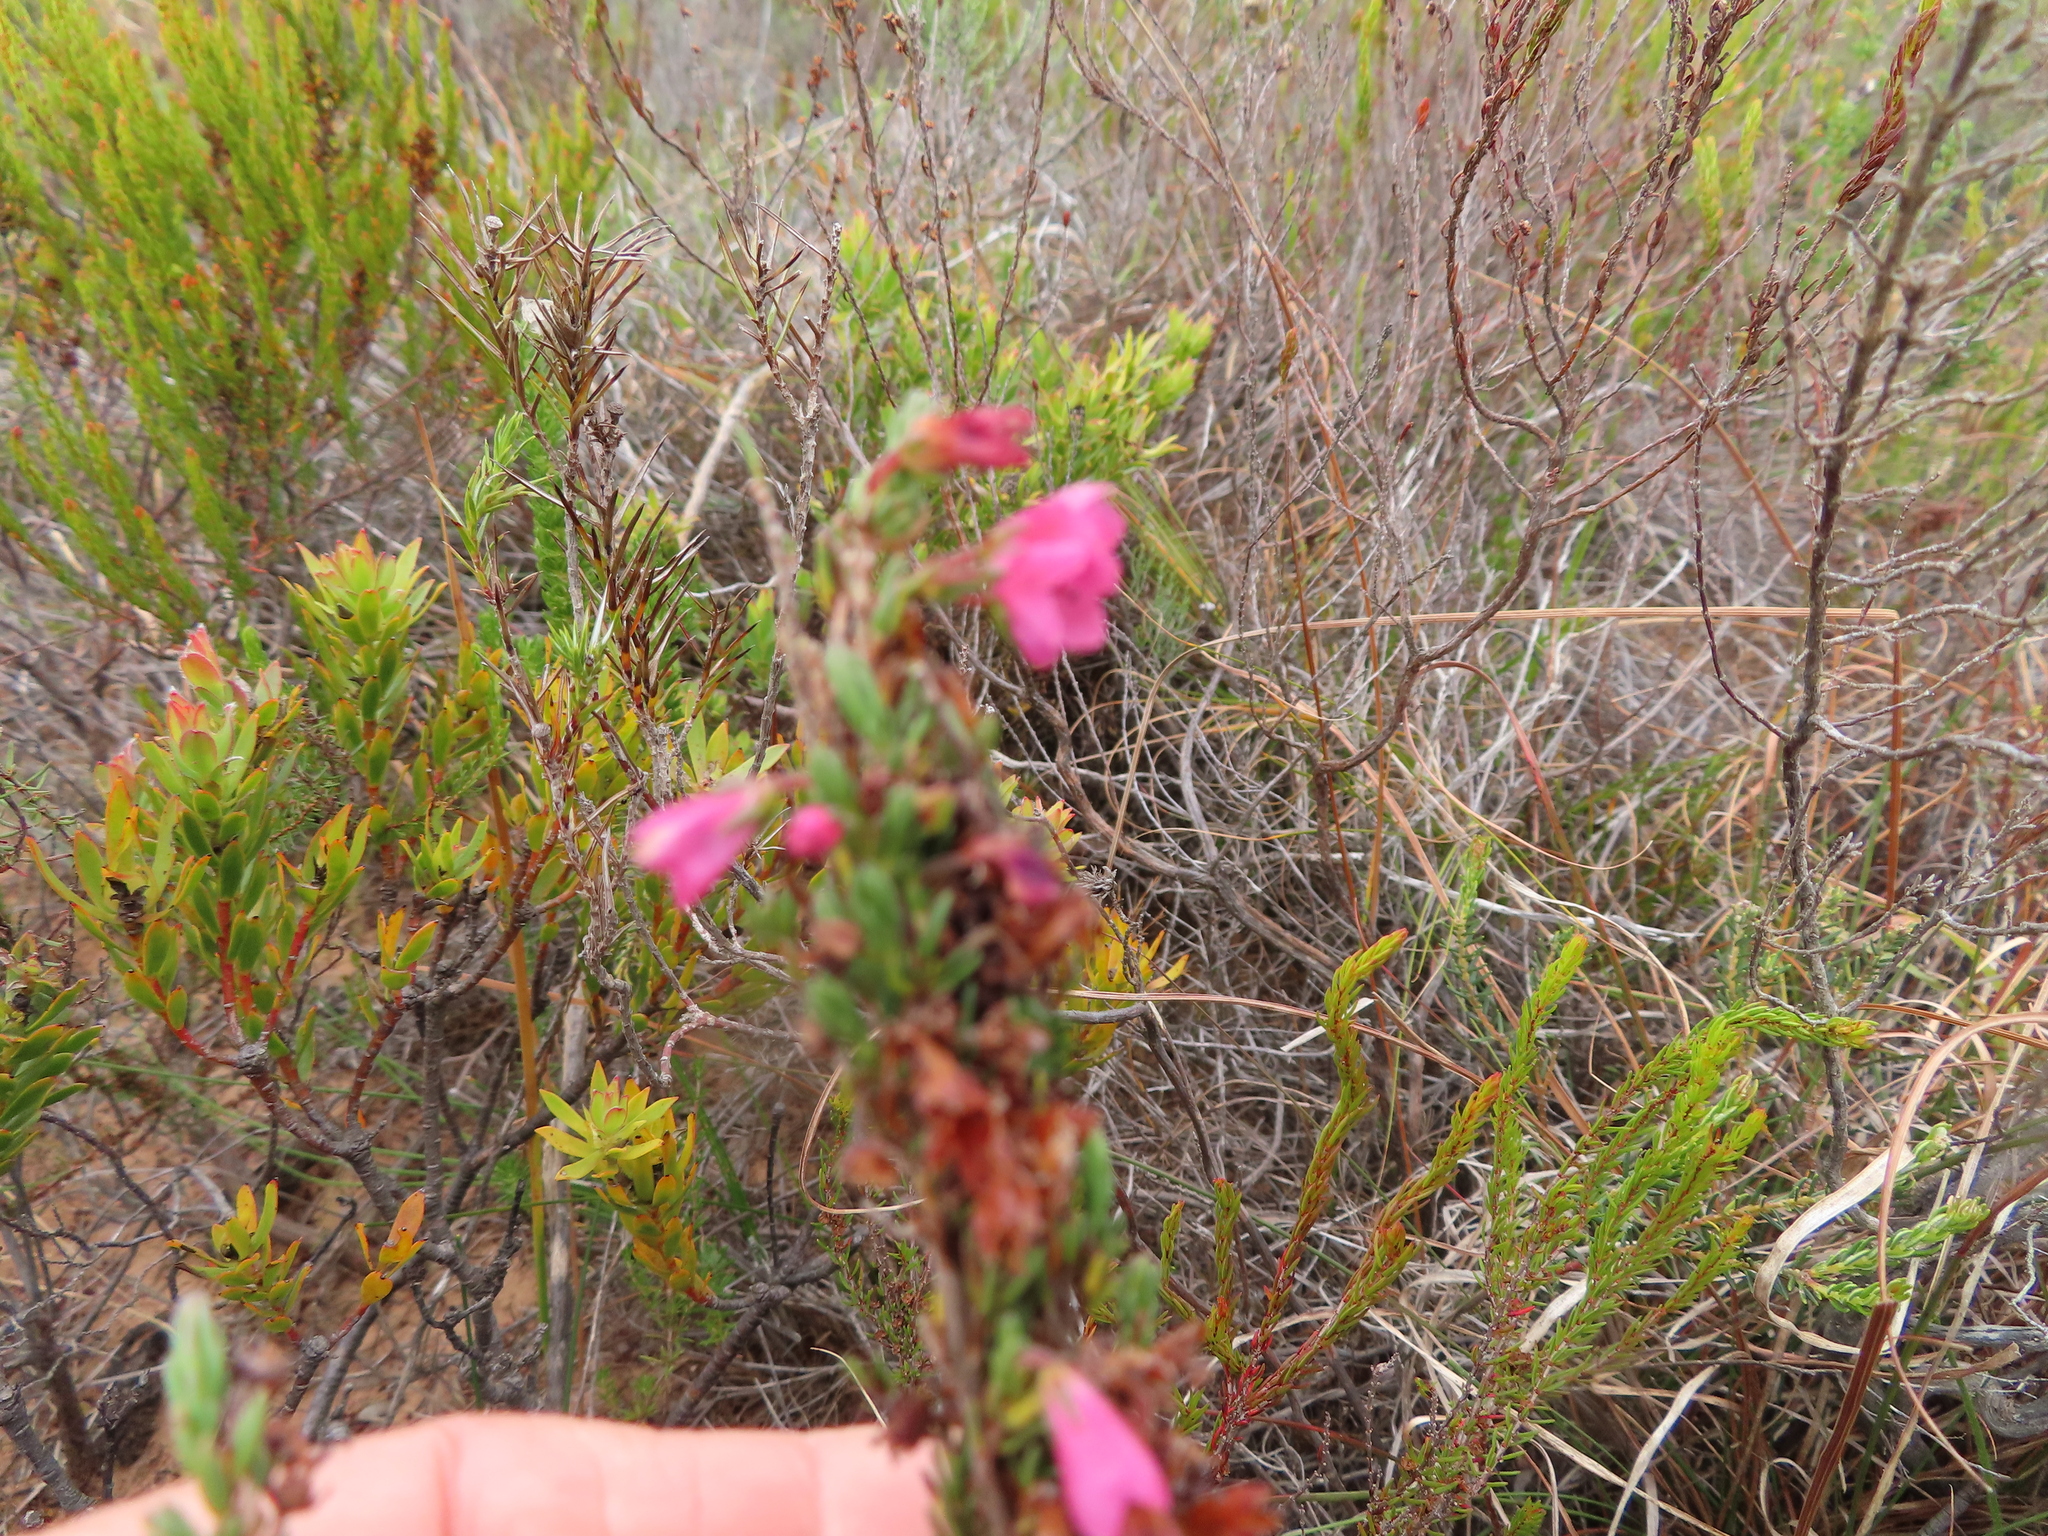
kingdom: Plantae
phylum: Tracheophyta
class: Magnoliopsida
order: Ericales
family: Ericaceae
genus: Erica
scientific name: Erica elimensis
